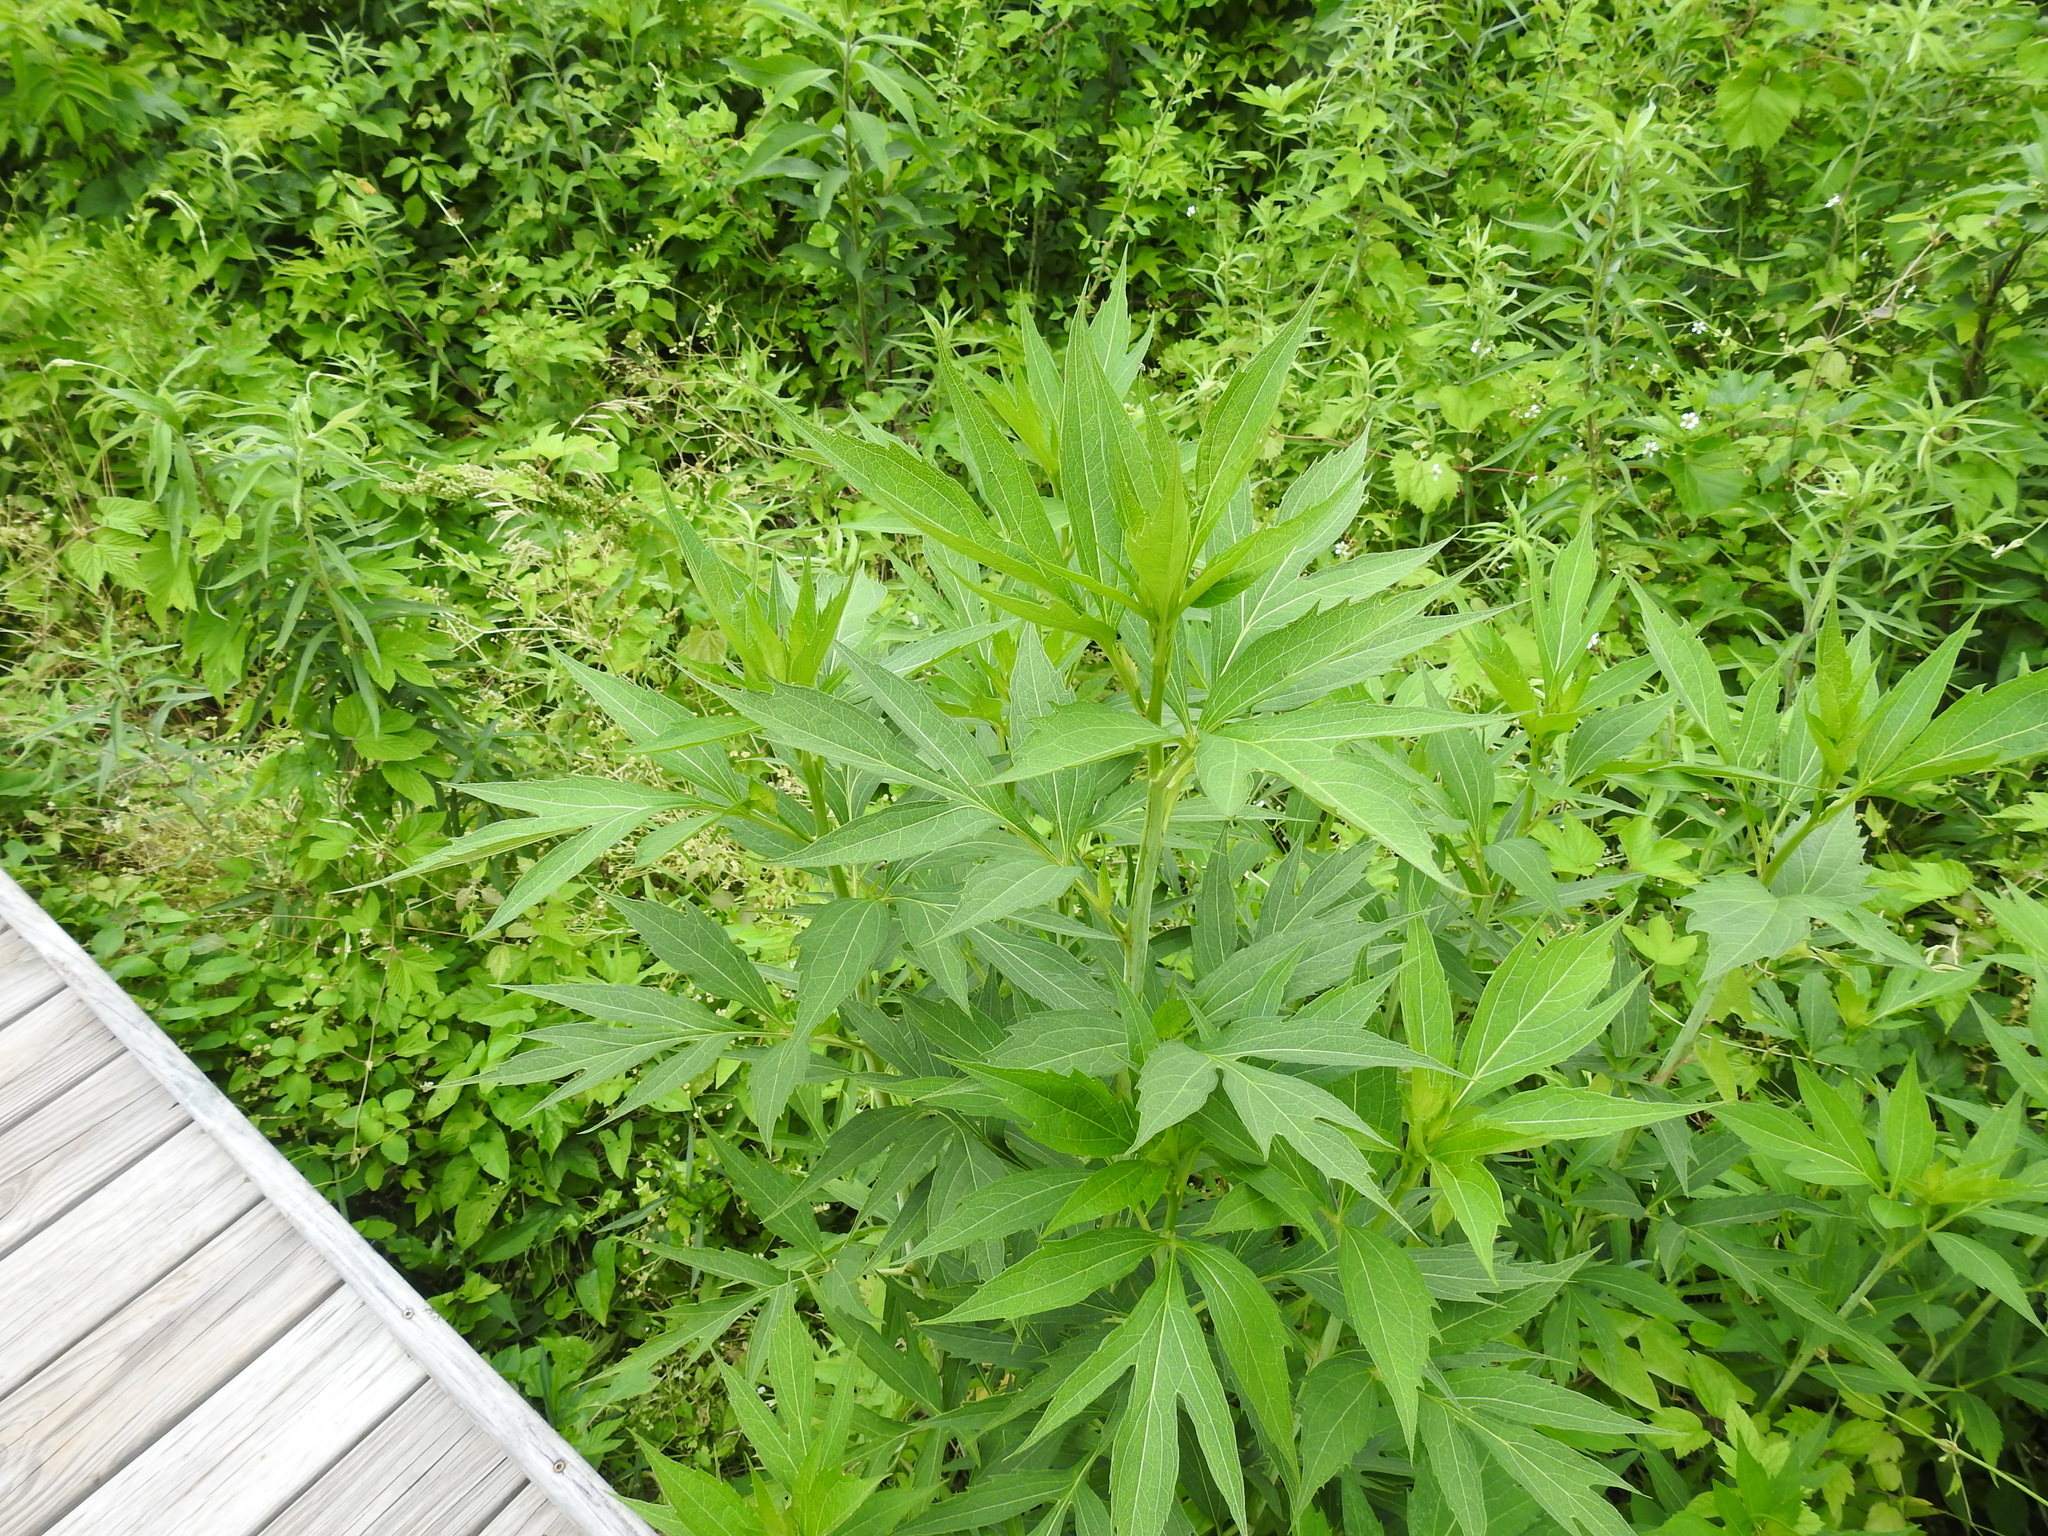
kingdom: Plantae
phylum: Tracheophyta
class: Magnoliopsida
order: Asterales
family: Asteraceae
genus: Rudbeckia
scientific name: Rudbeckia laciniata
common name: Coneflower
